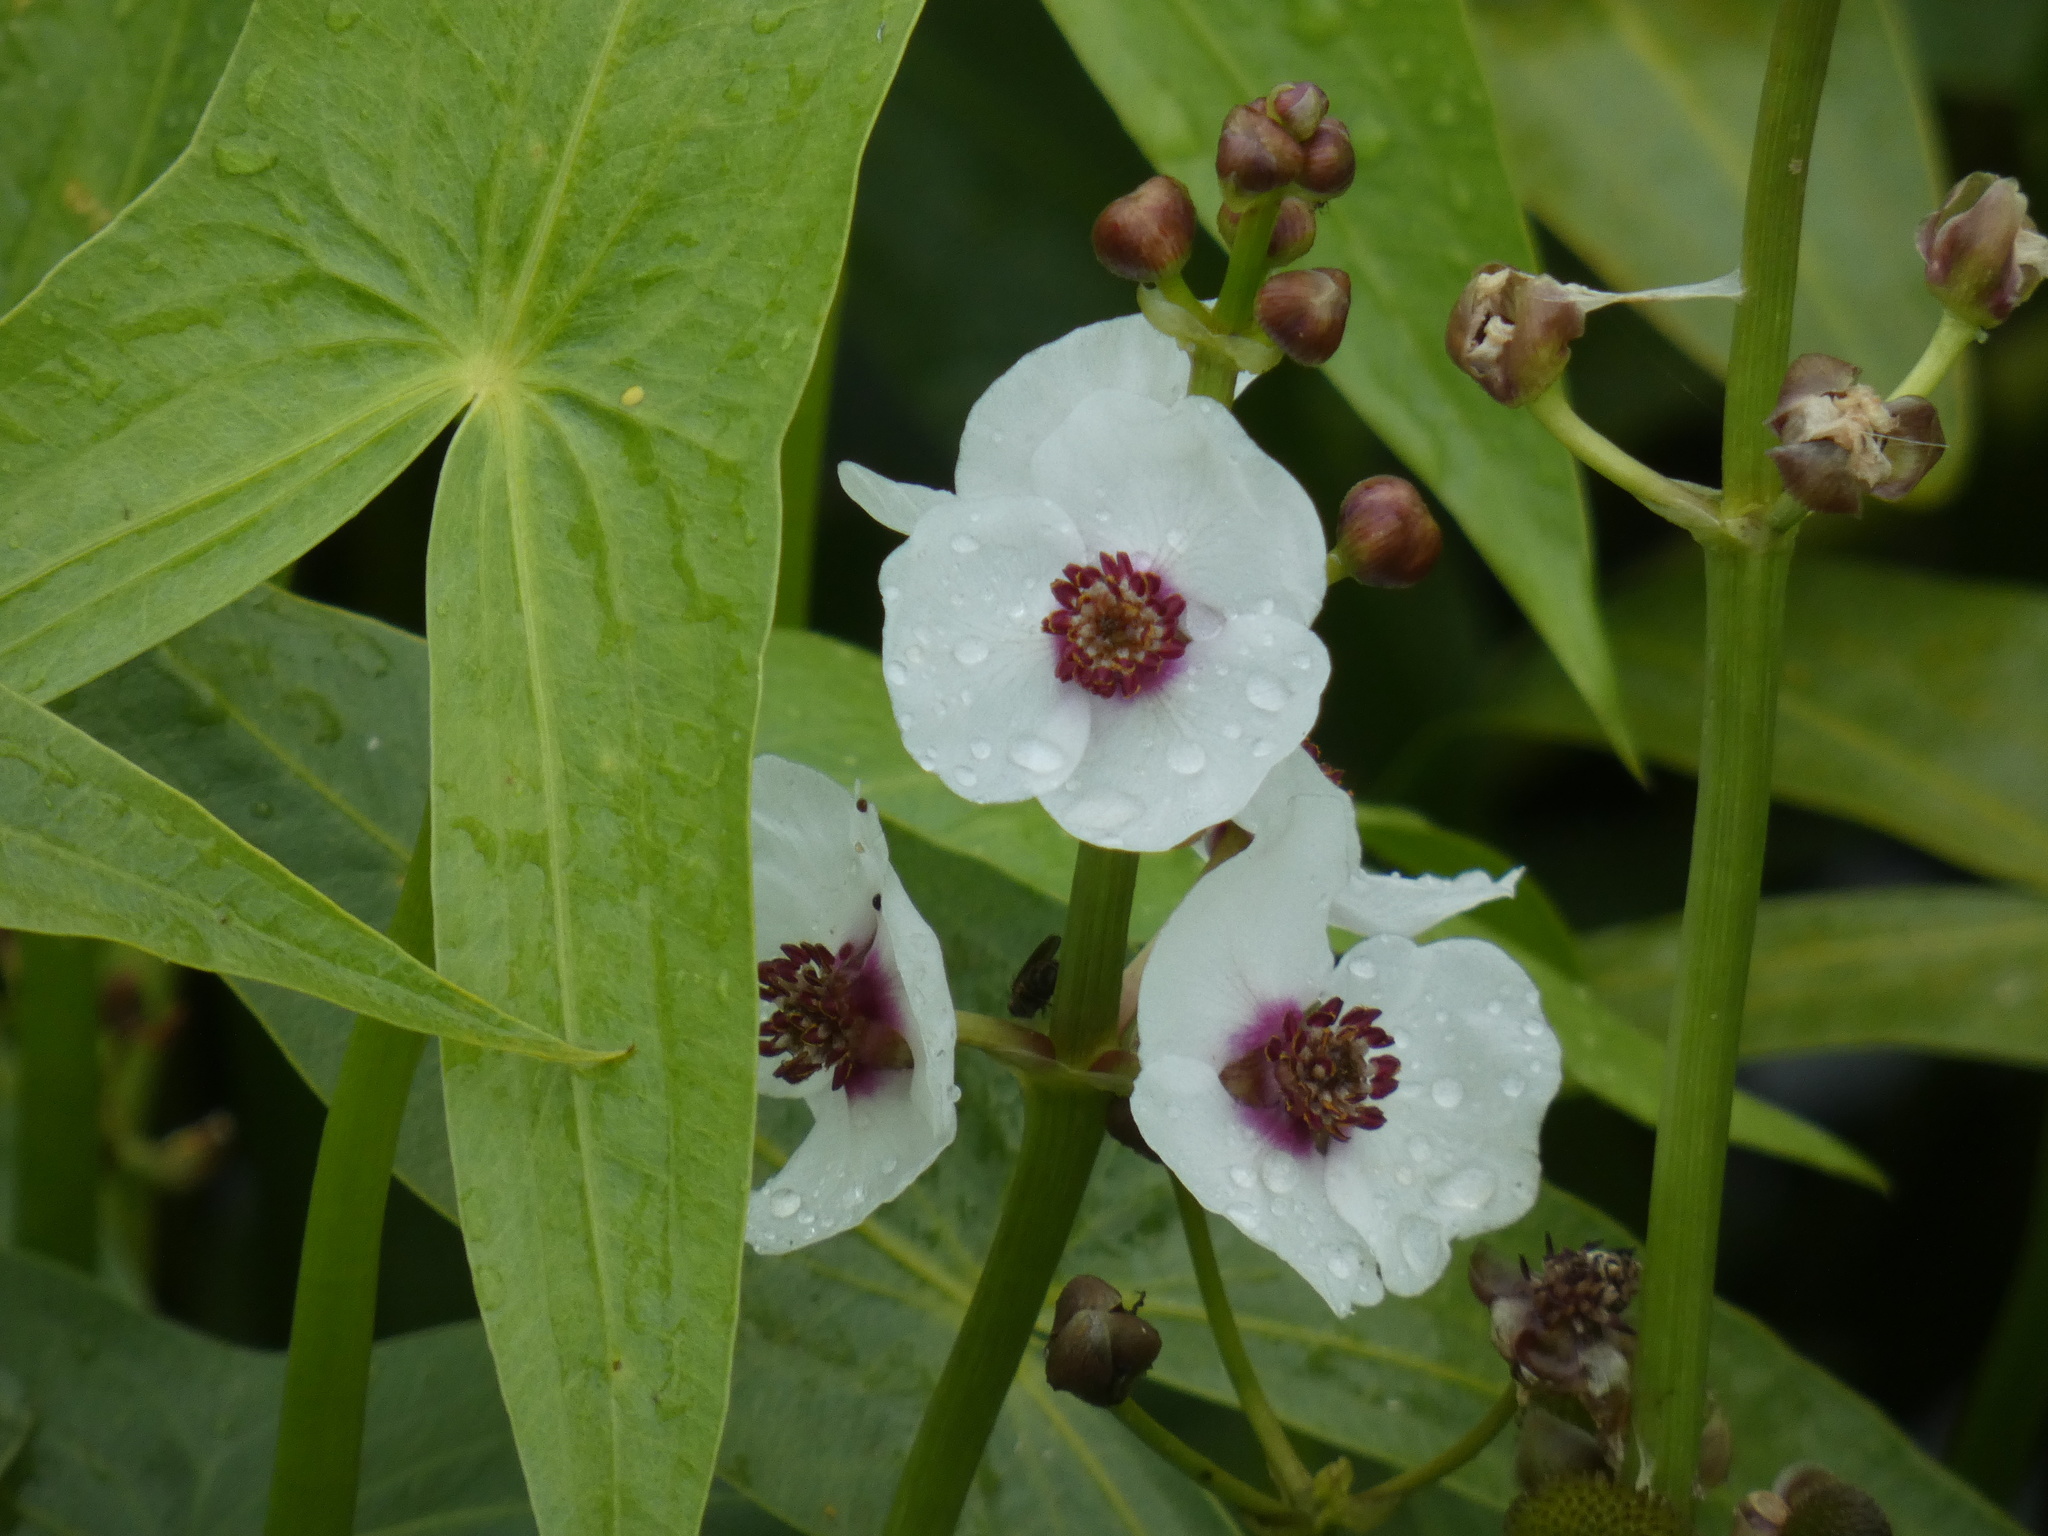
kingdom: Plantae
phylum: Tracheophyta
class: Liliopsida
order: Alismatales
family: Alismataceae
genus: Sagittaria
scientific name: Sagittaria sagittifolia
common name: Arrowhead
